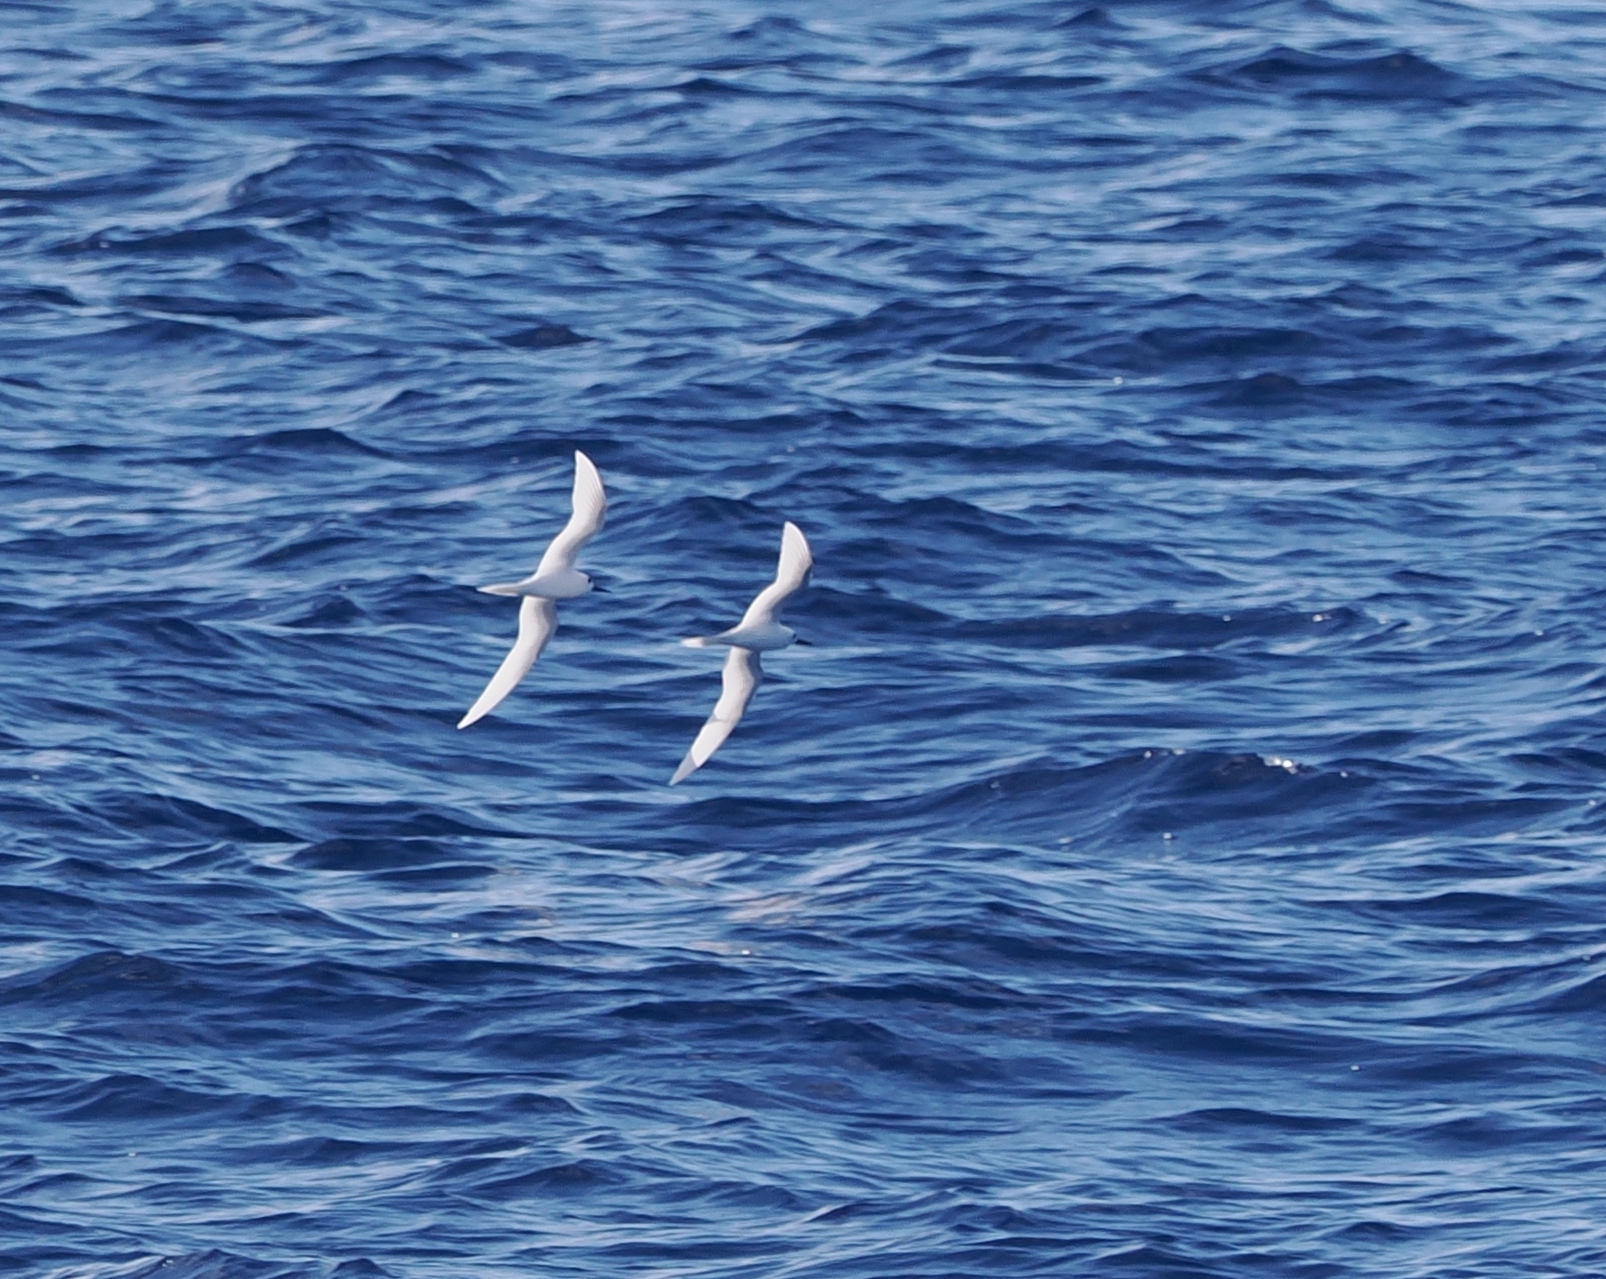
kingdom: Animalia
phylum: Chordata
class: Aves
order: Charadriiformes
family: Laridae
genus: Gygis
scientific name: Gygis alba
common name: White tern
